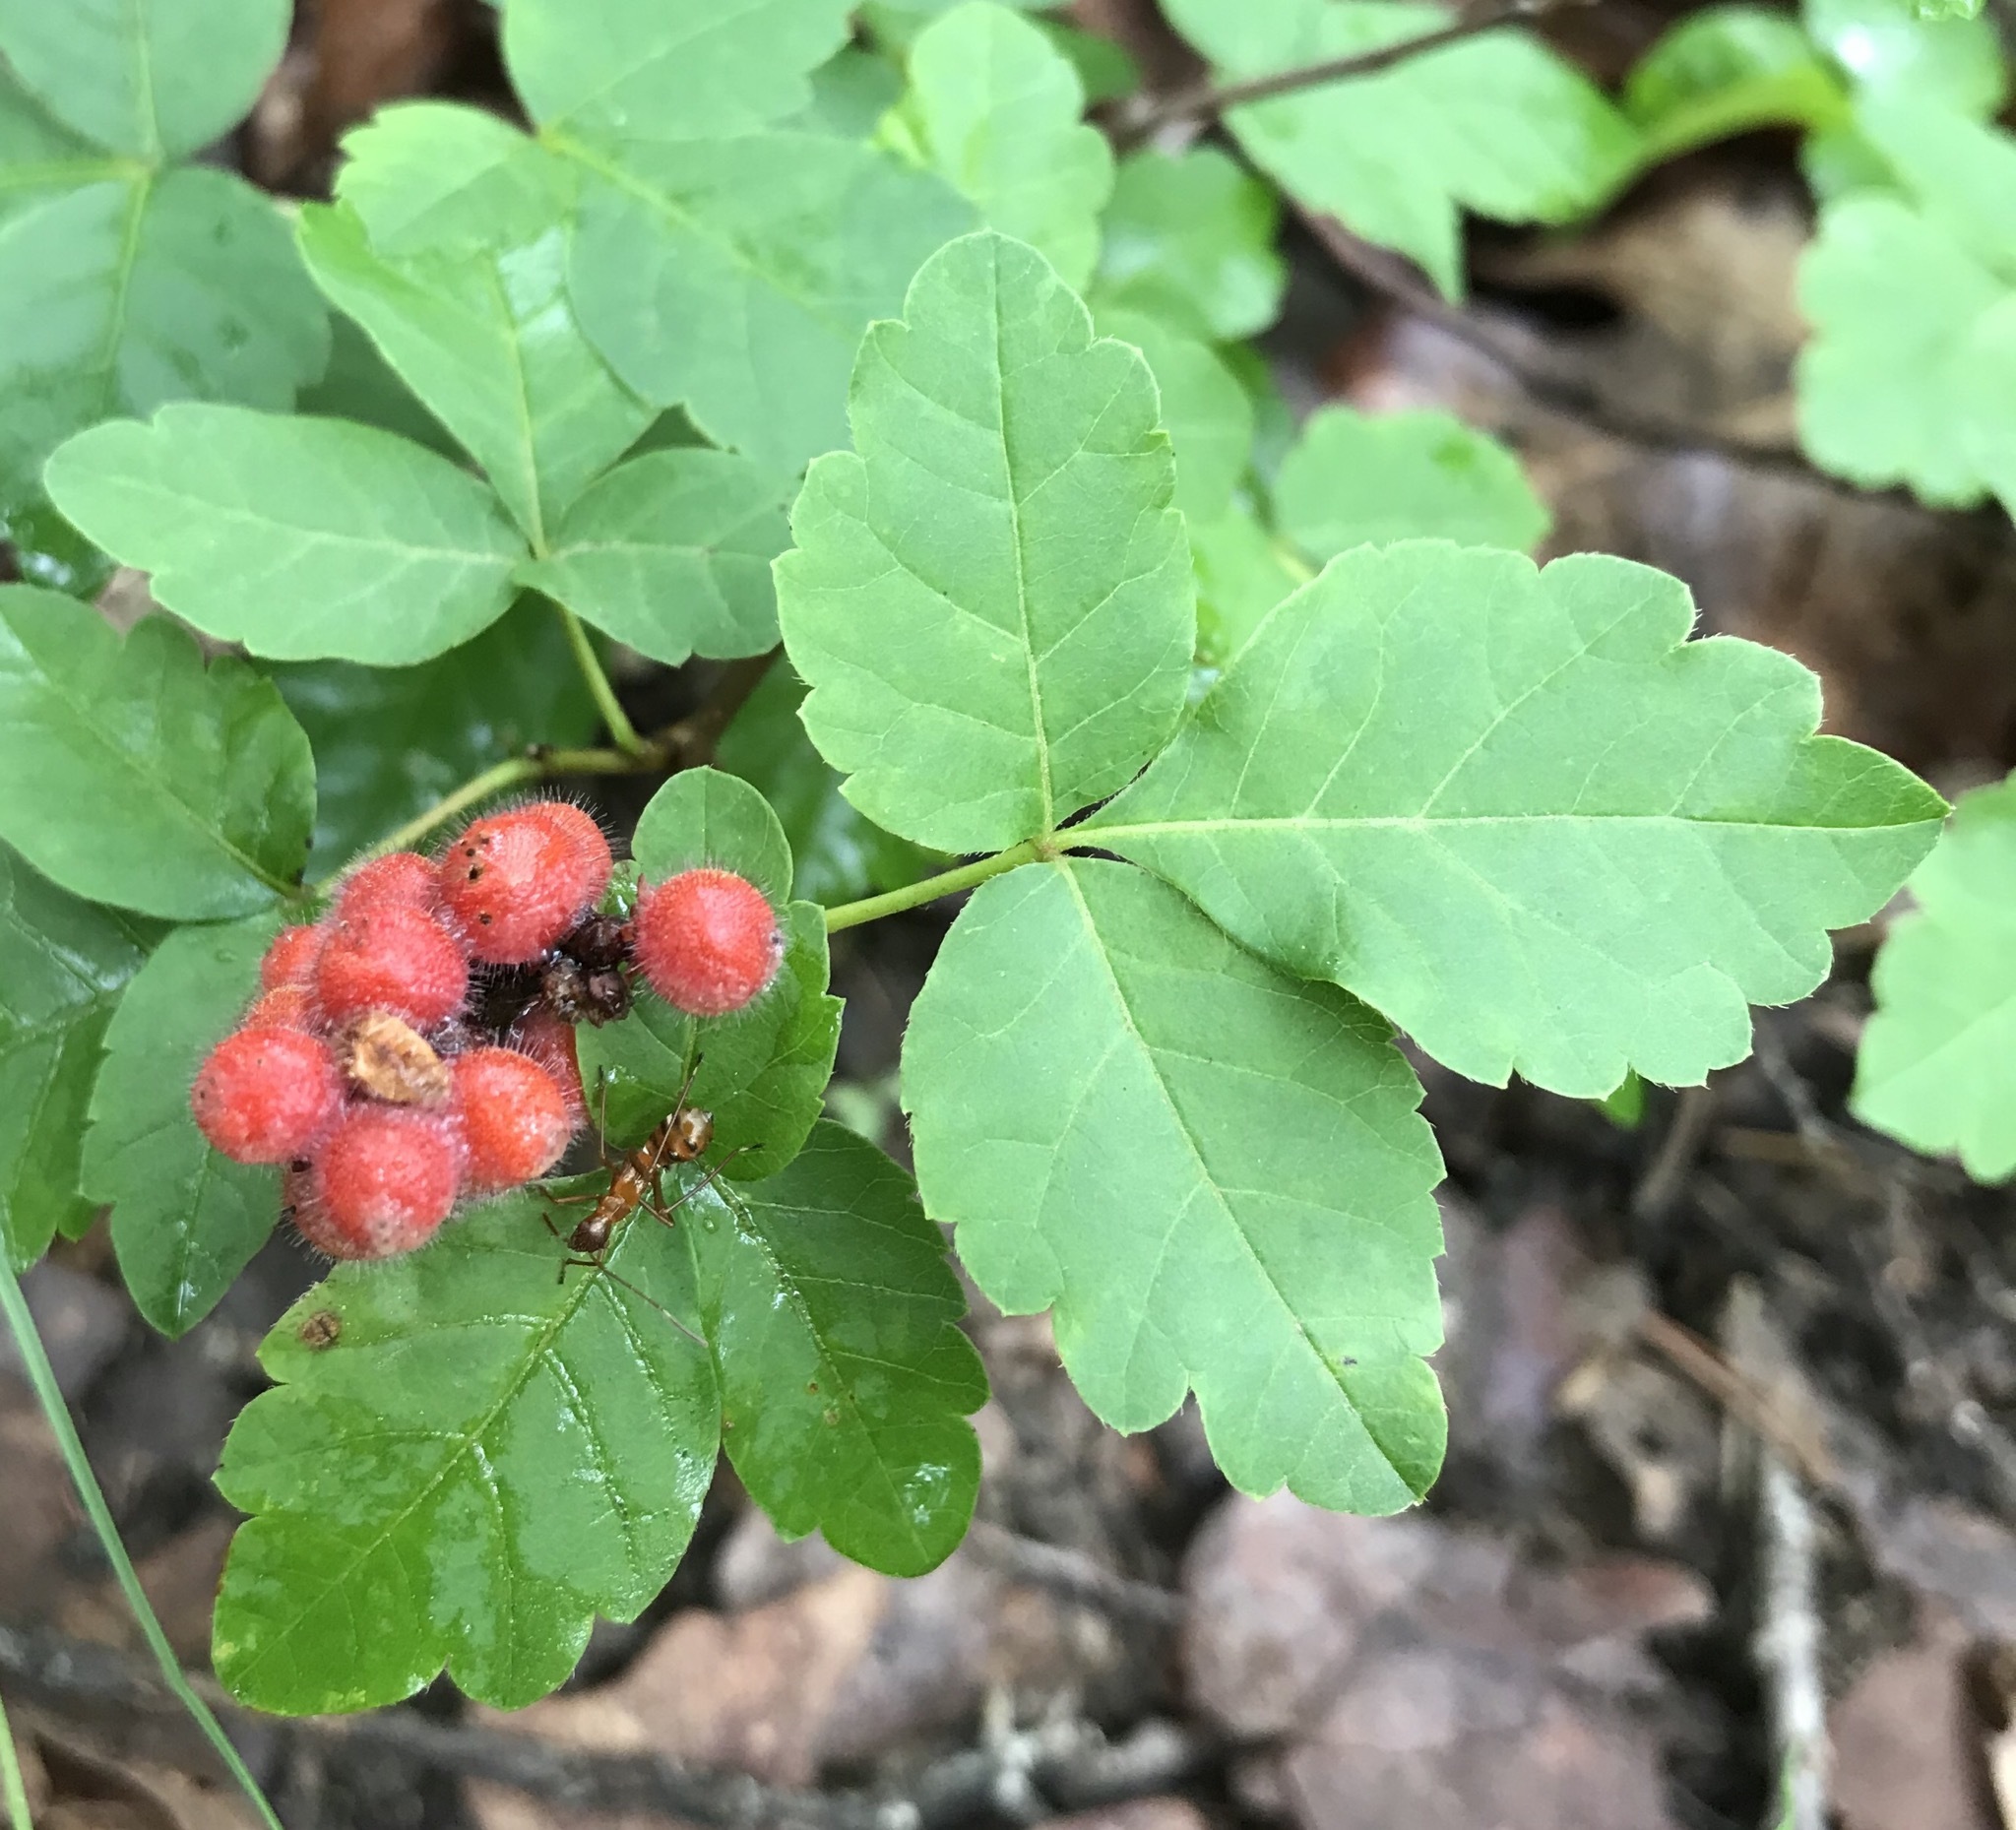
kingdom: Plantae
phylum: Tracheophyta
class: Magnoliopsida
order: Sapindales
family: Anacardiaceae
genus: Rhus
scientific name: Rhus aromatica
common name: Aromatic sumac
